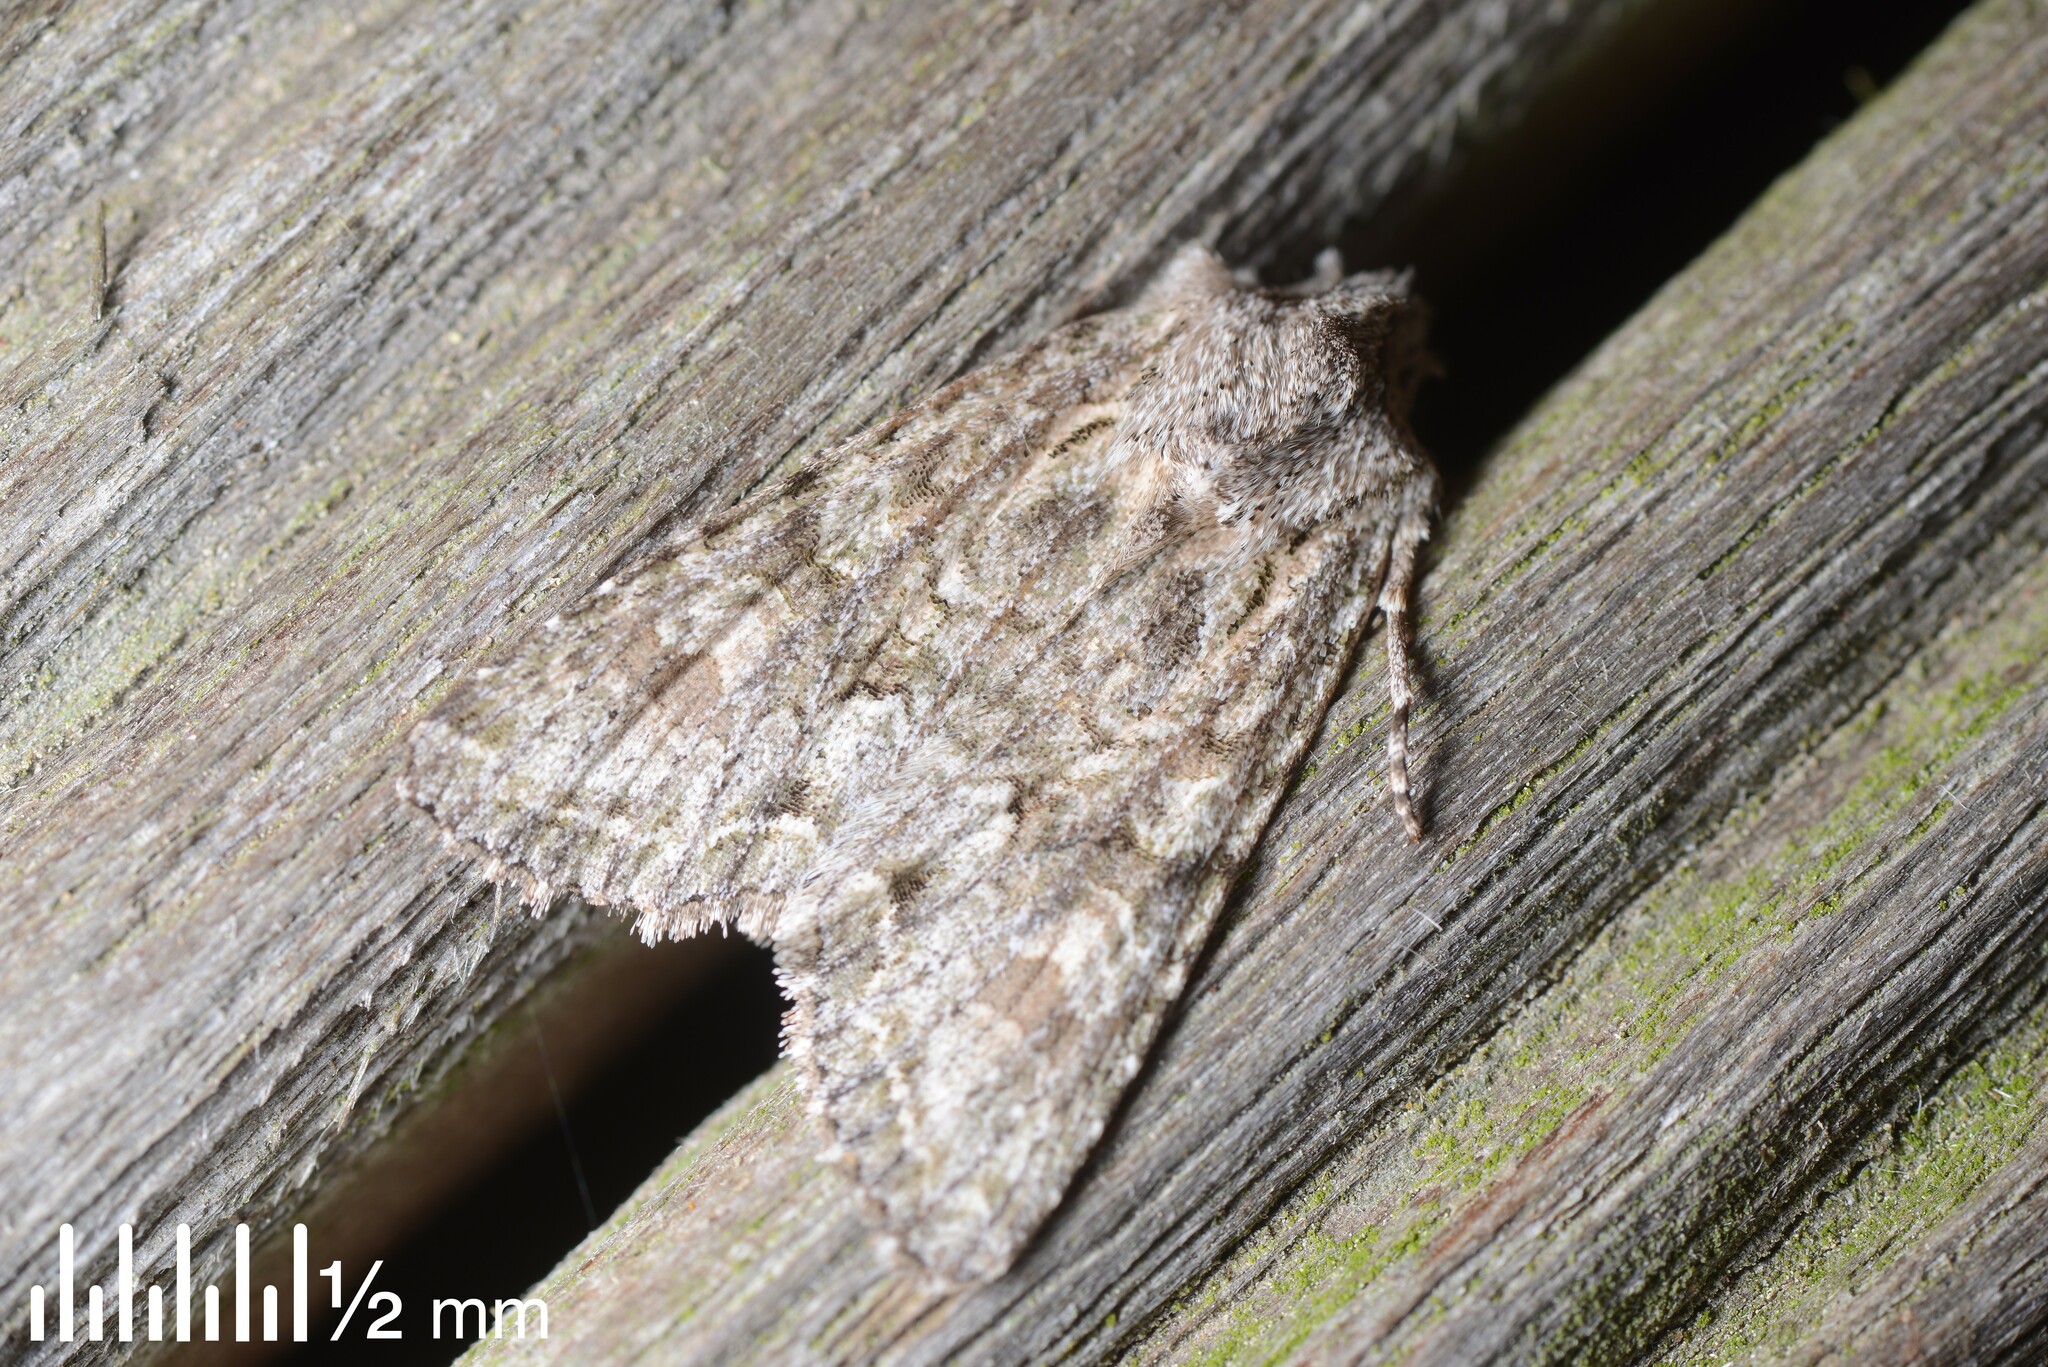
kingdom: Animalia
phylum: Arthropoda
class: Insecta
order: Lepidoptera
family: Noctuidae
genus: Ichneutica
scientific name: Ichneutica mutans
